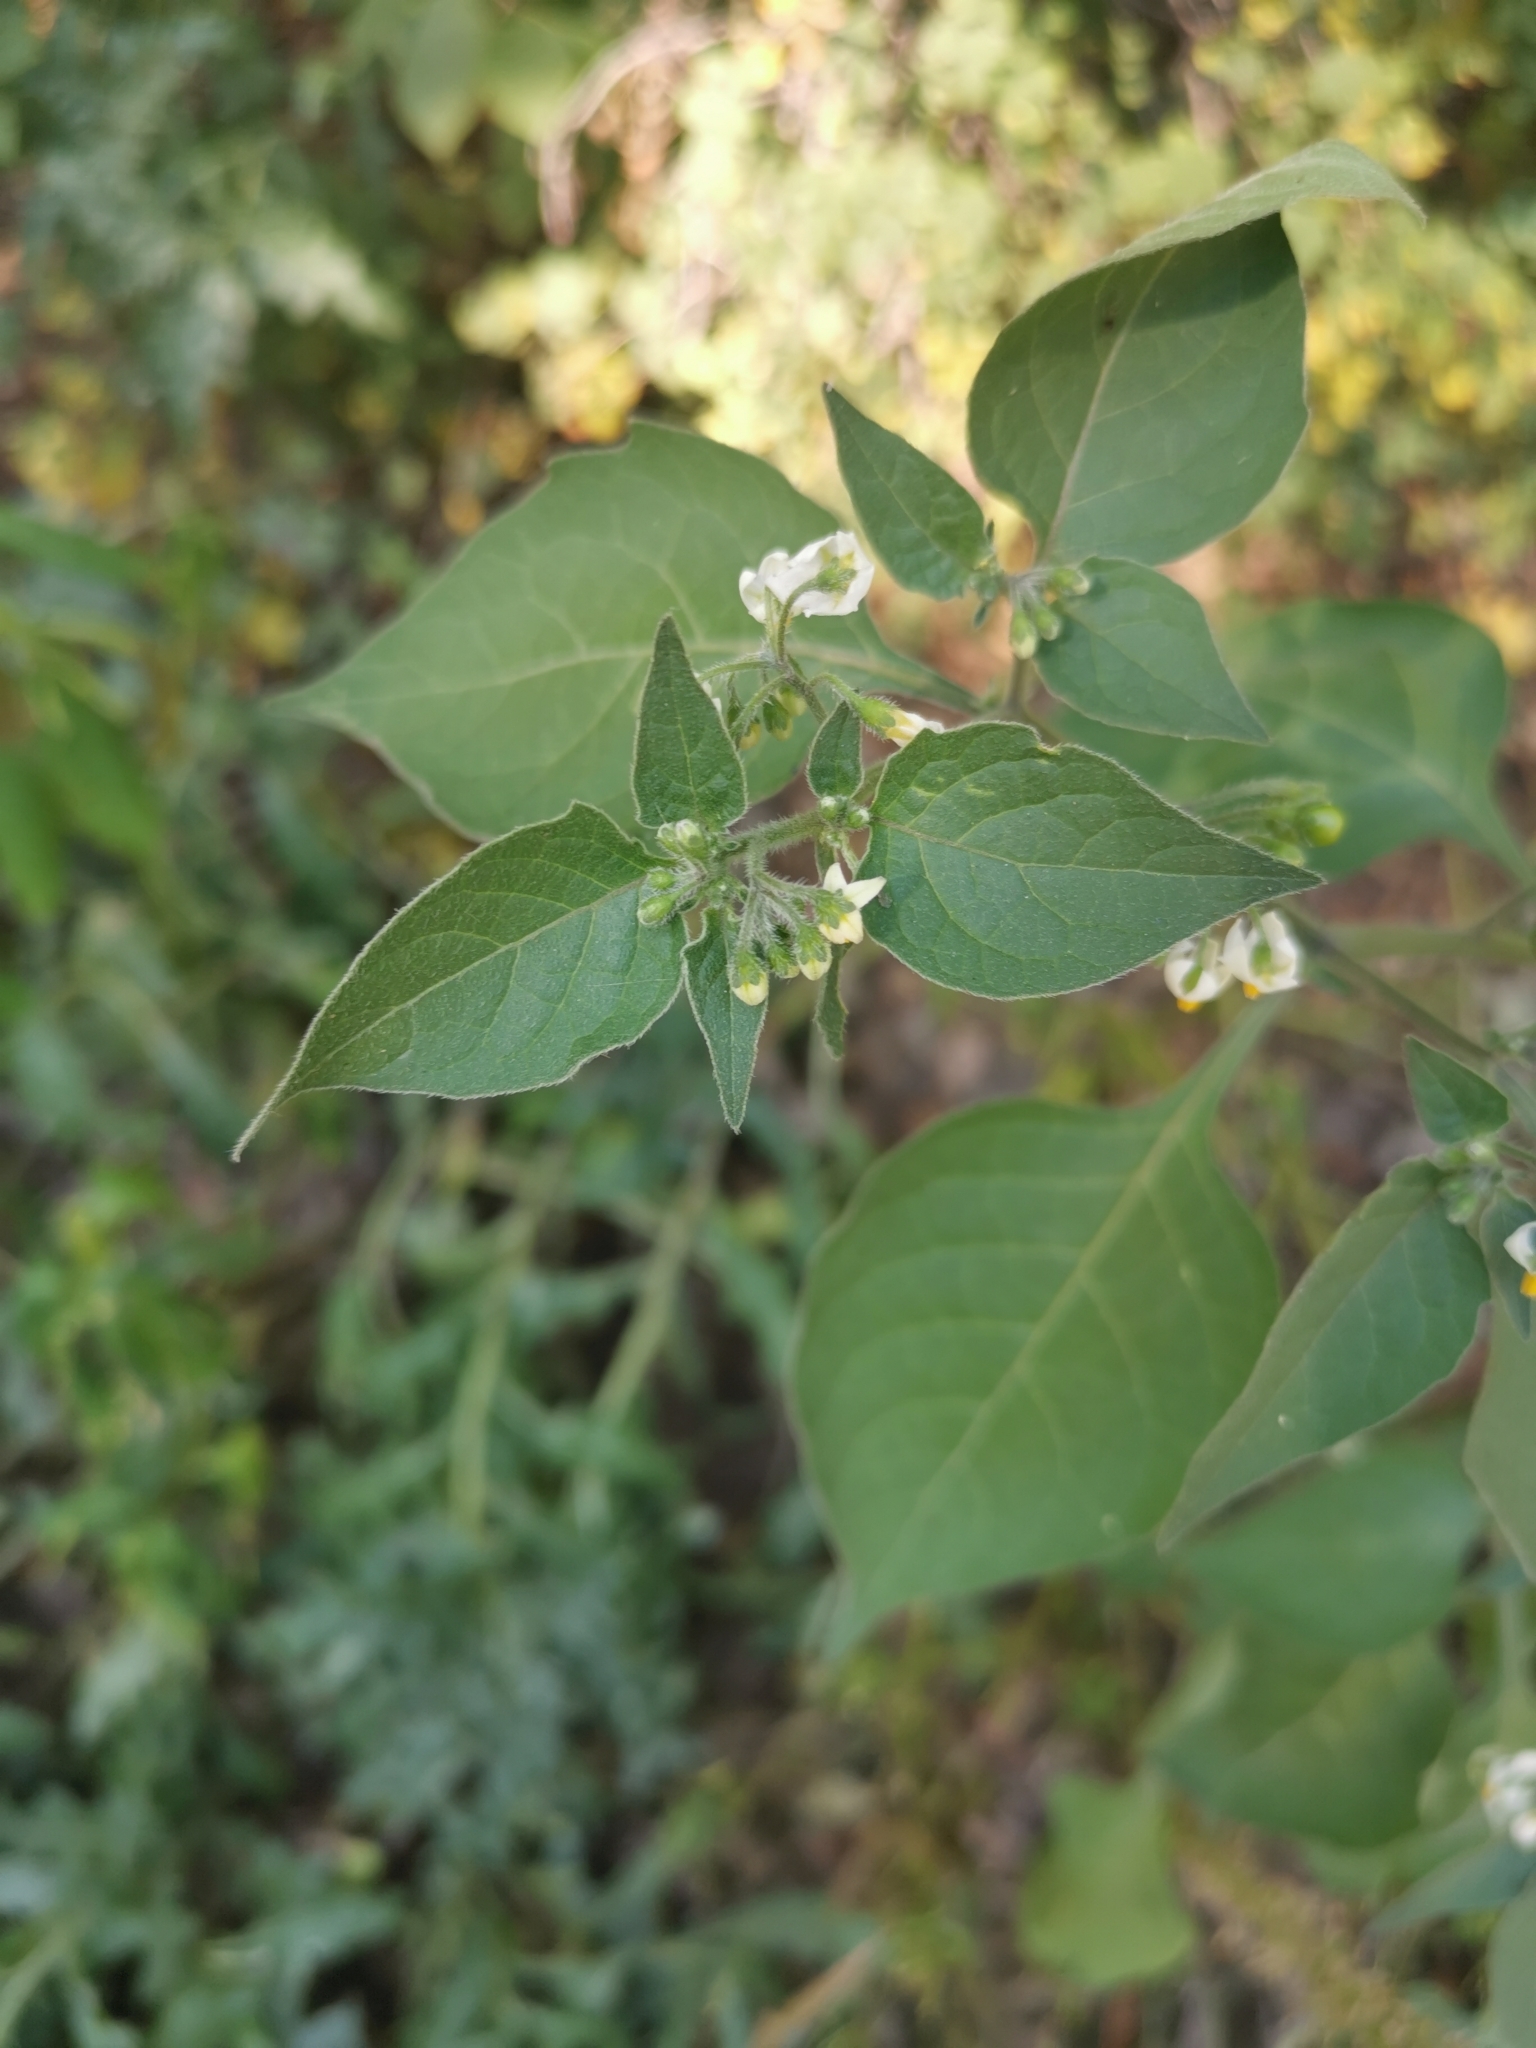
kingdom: Plantae
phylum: Tracheophyta
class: Magnoliopsida
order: Solanales
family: Solanaceae
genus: Solanum
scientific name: Solanum nigrum
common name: Black nightshade
